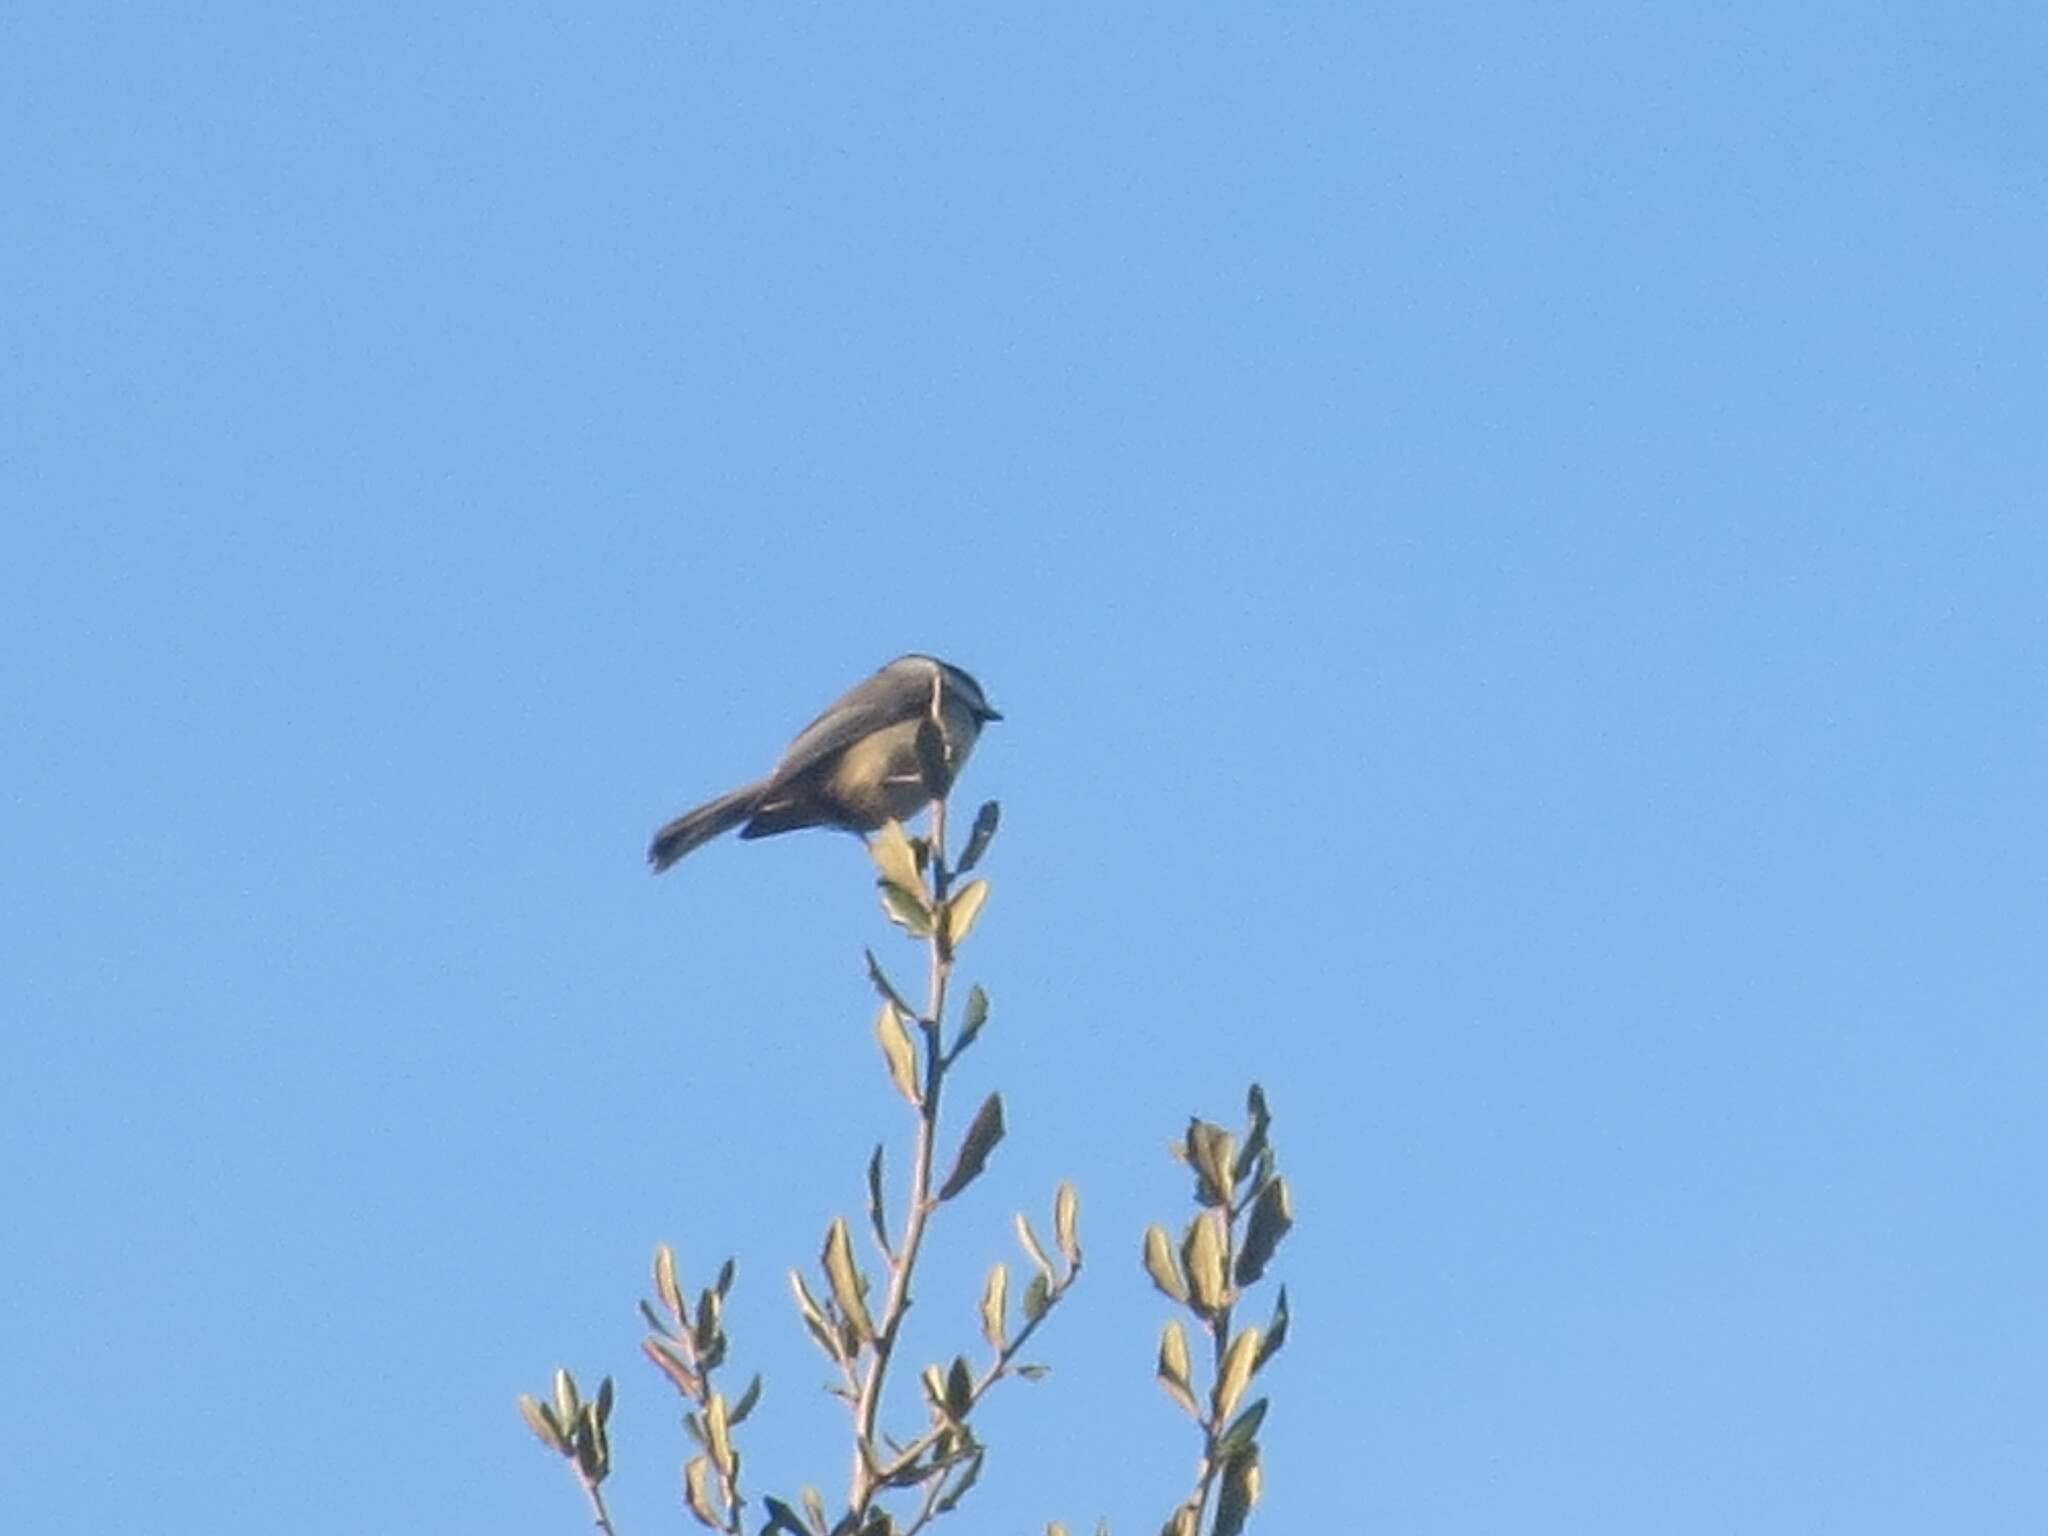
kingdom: Animalia
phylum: Chordata
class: Aves
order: Passeriformes
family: Paridae
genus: Poecile
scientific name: Poecile carolinensis
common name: Carolina chickadee
